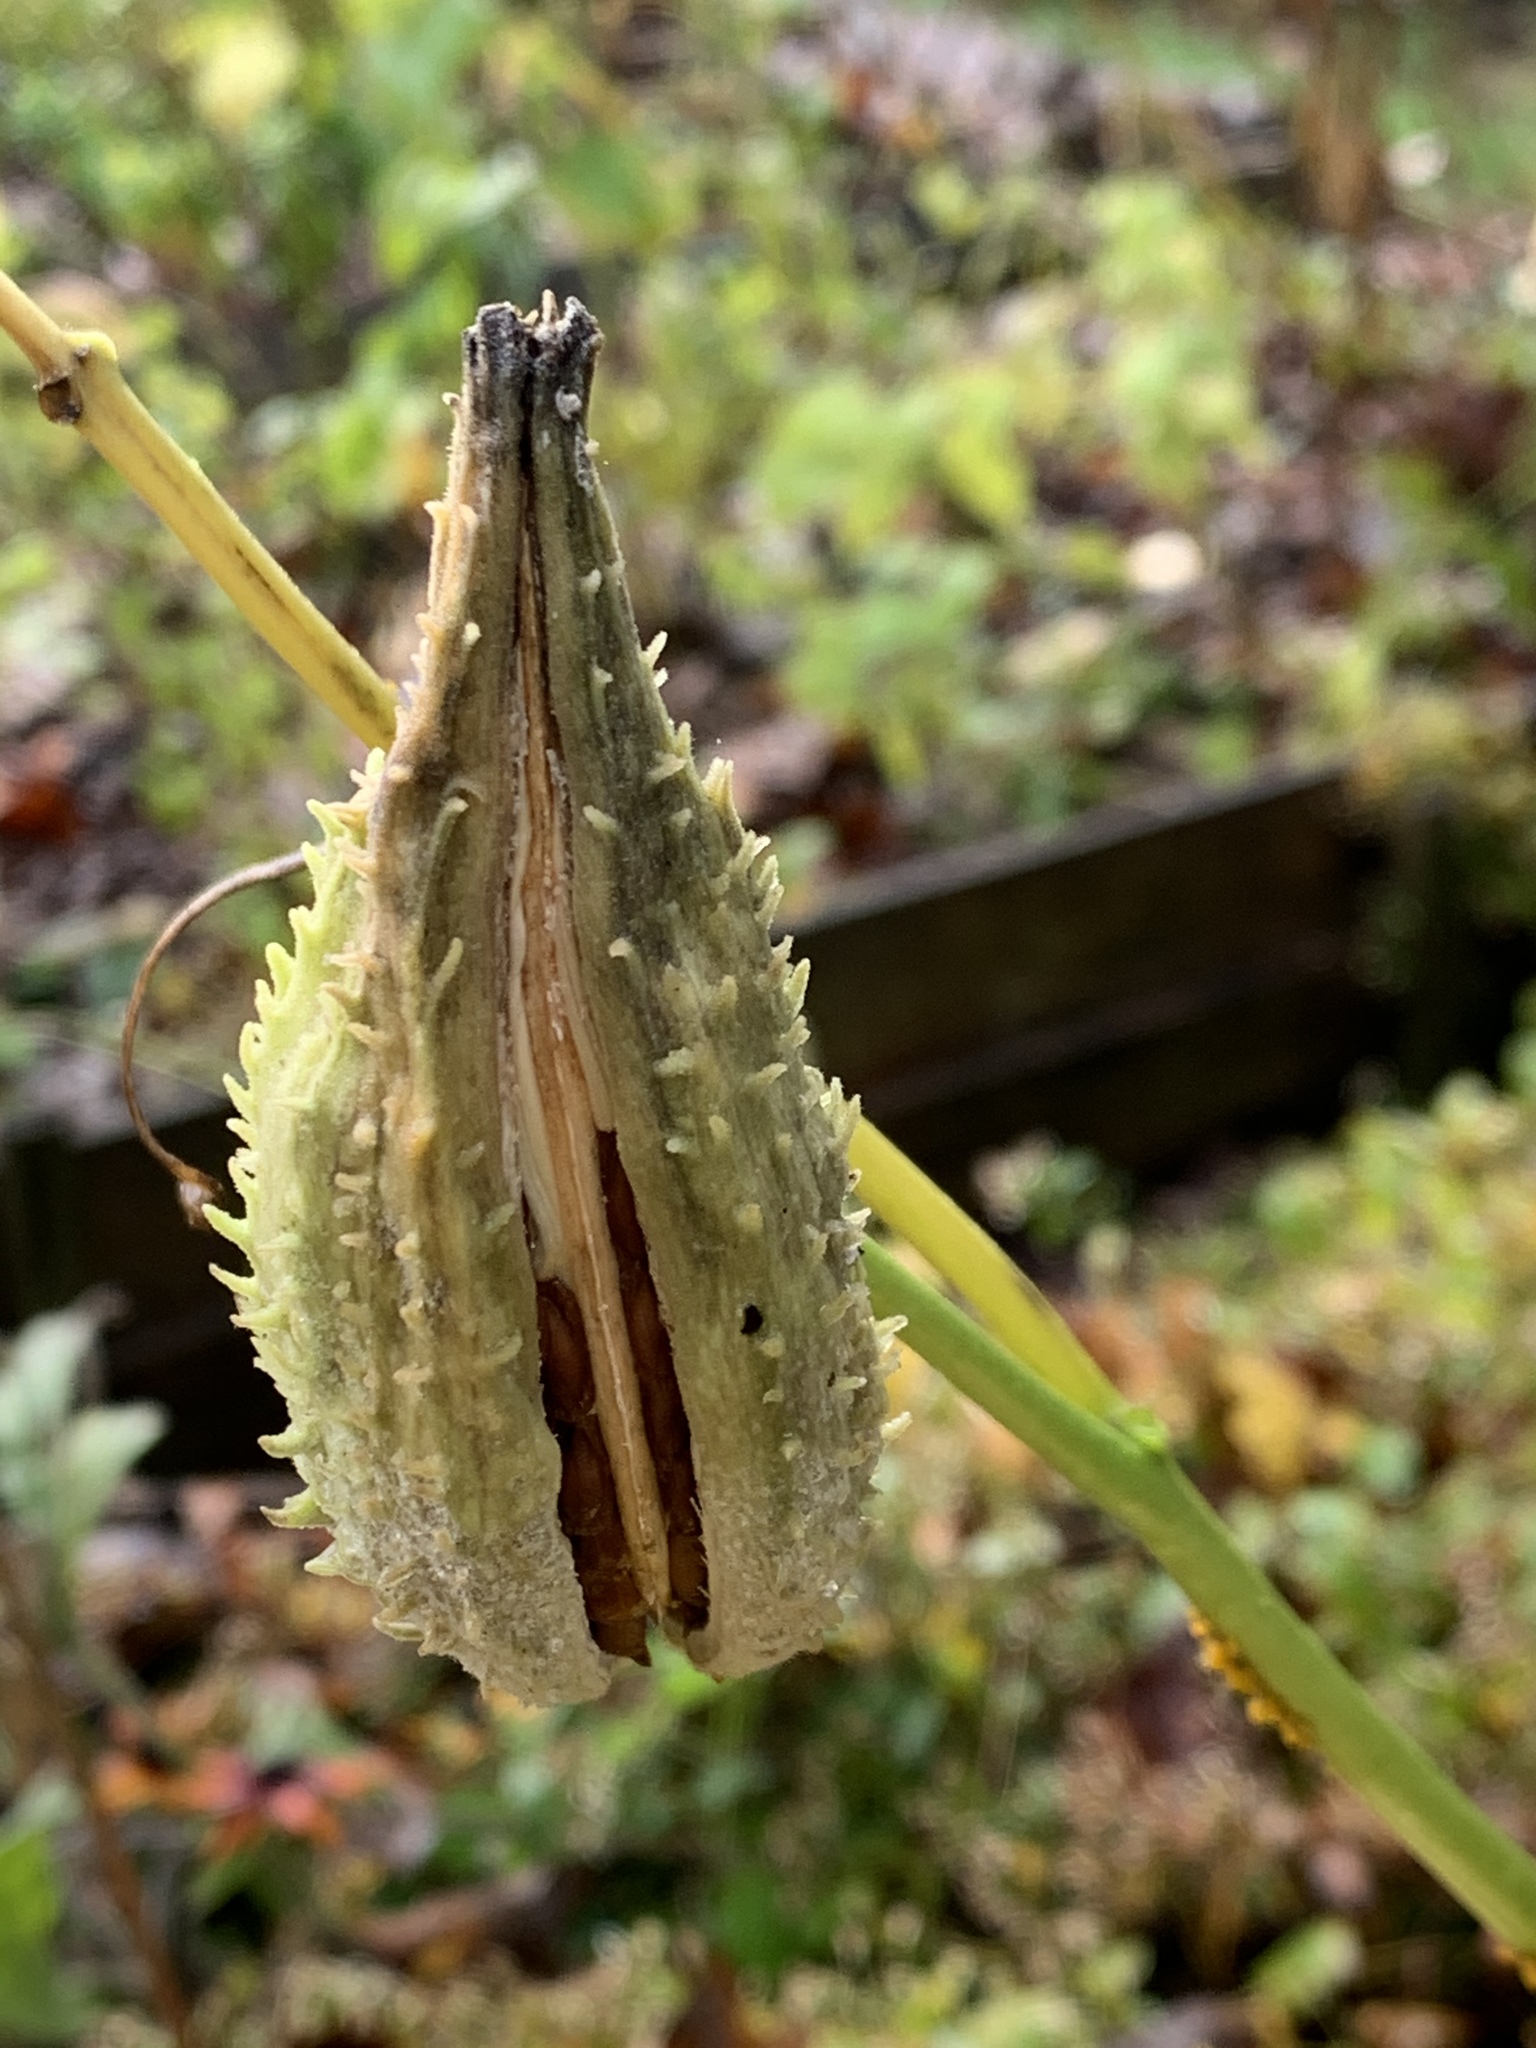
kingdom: Plantae
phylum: Tracheophyta
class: Magnoliopsida
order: Gentianales
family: Apocynaceae
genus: Asclepias
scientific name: Asclepias syriaca
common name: Common milkweed
